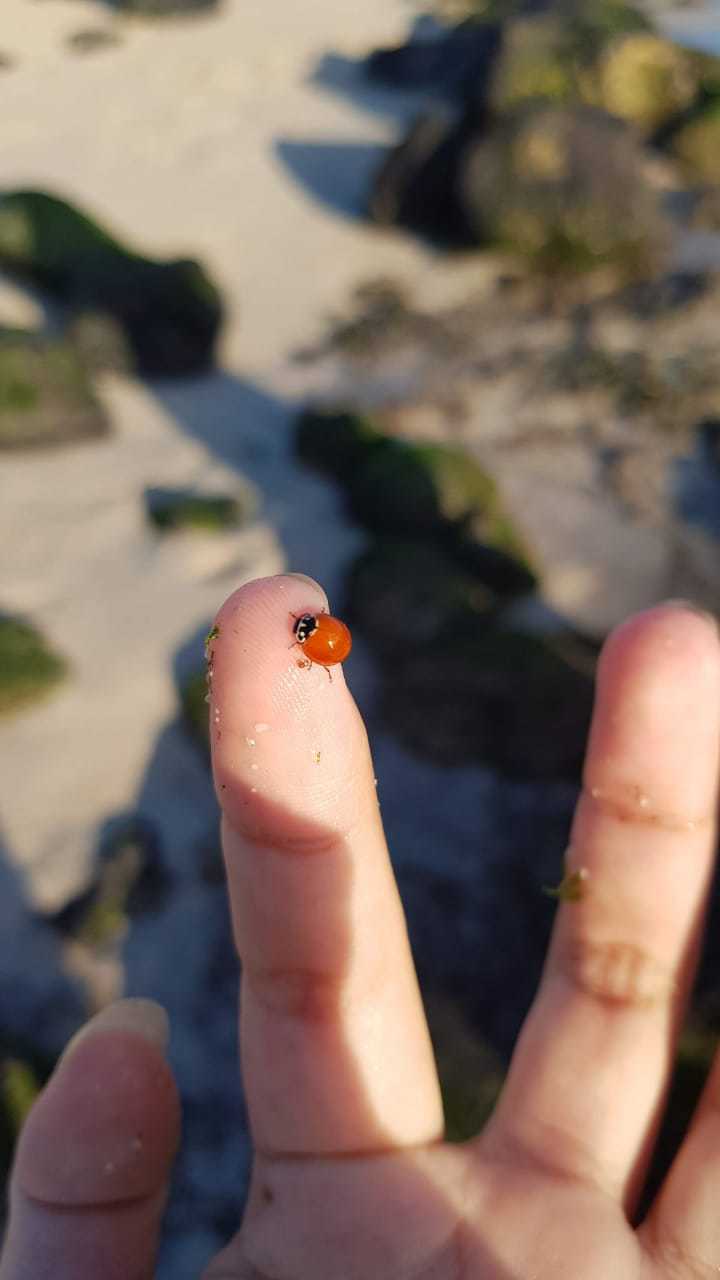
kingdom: Animalia
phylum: Arthropoda
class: Insecta
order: Coleoptera
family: Coccinellidae
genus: Cycloneda
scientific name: Cycloneda sanguinea
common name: Ladybird beetle
